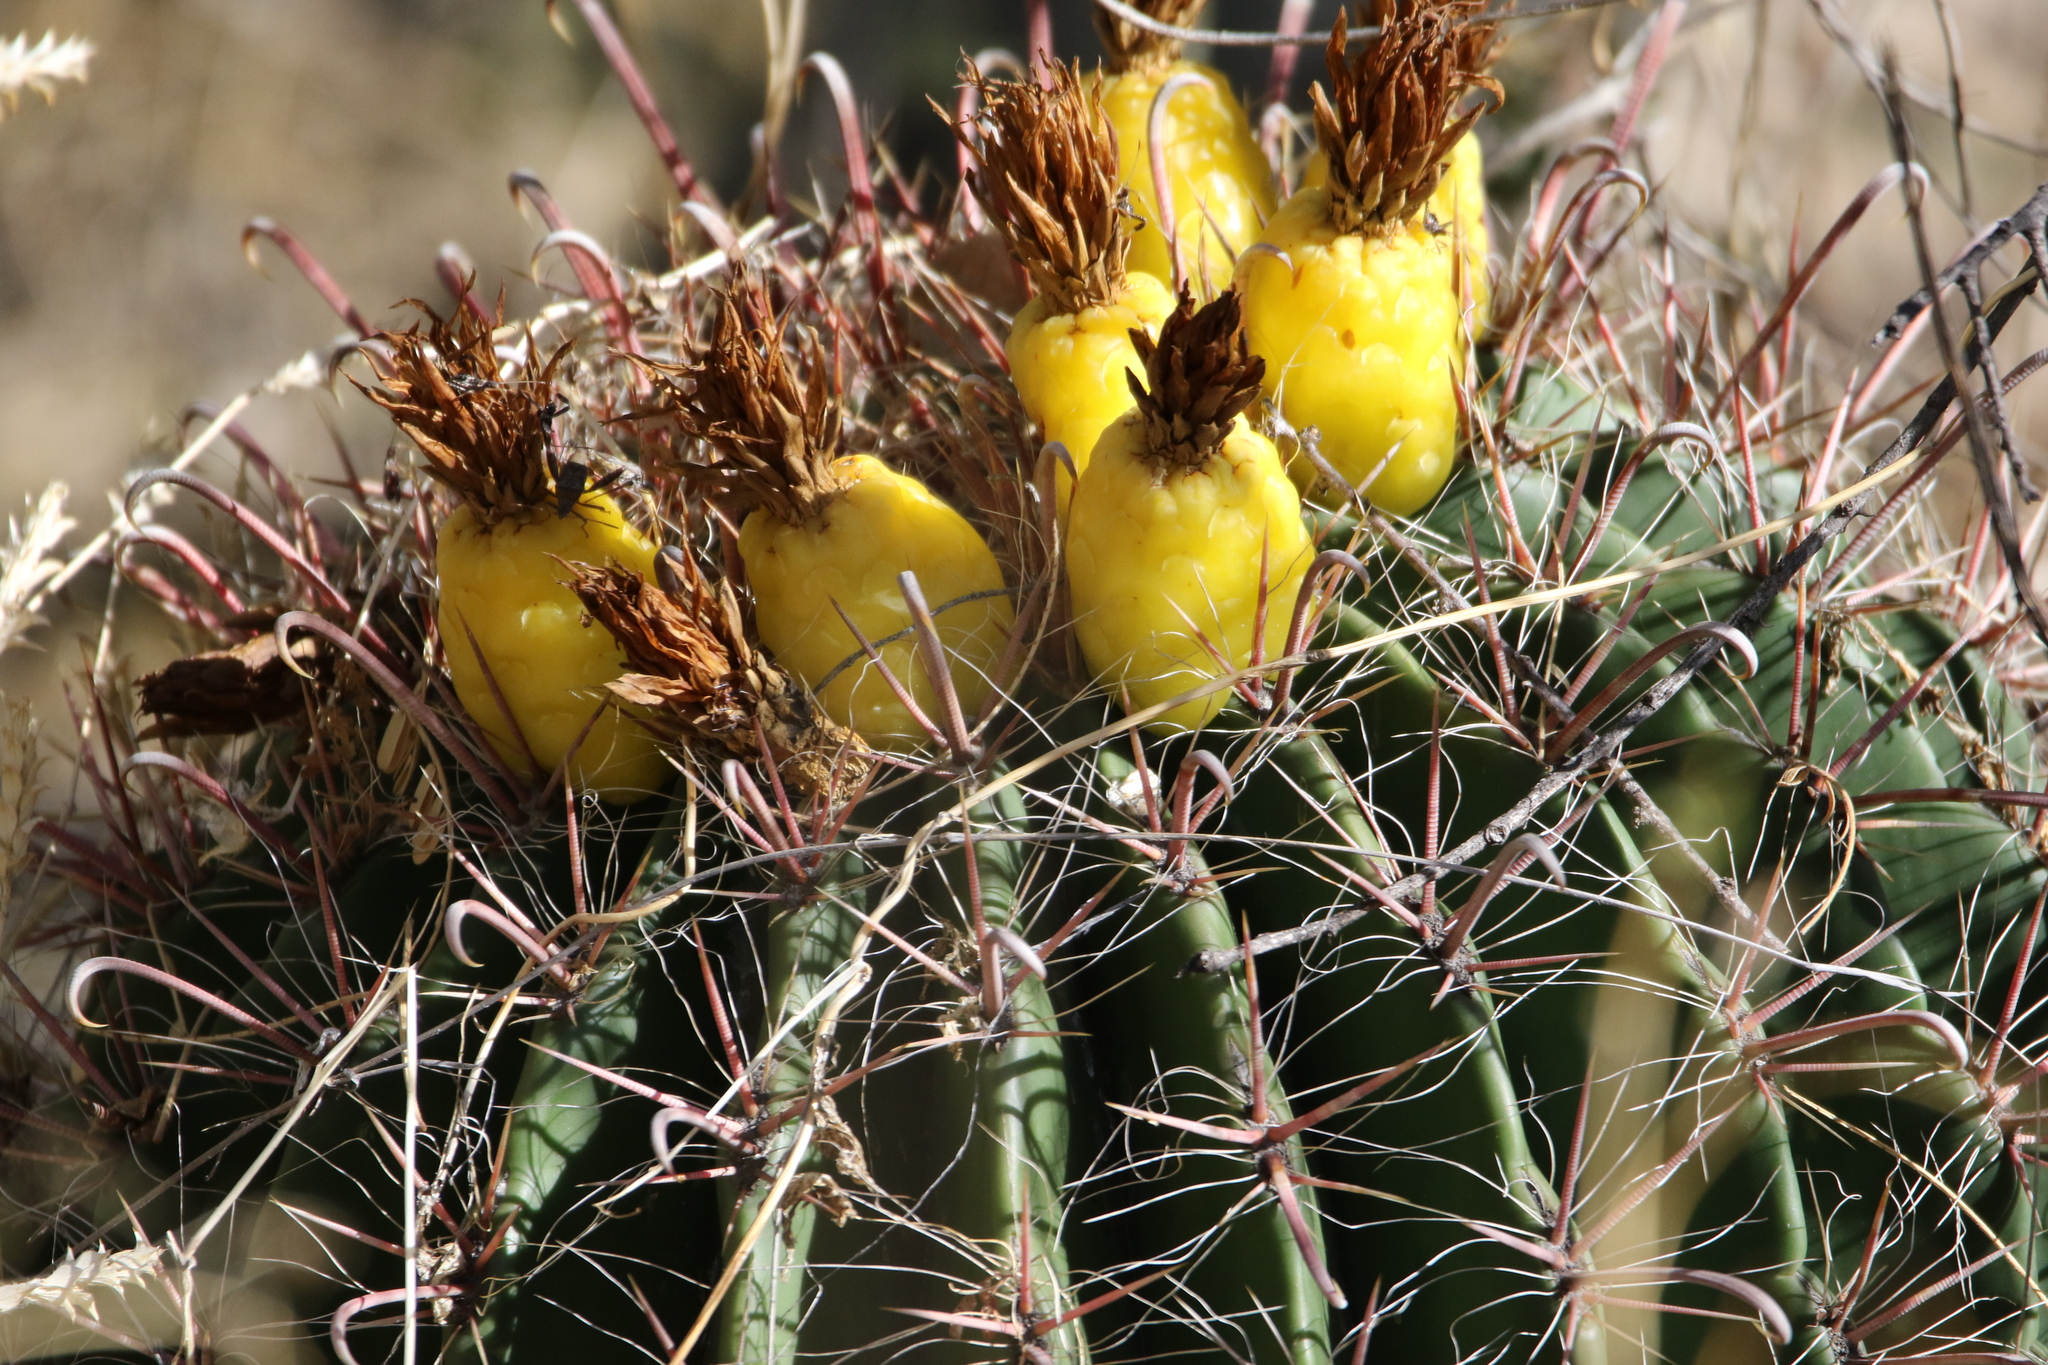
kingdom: Plantae
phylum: Tracheophyta
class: Magnoliopsida
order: Caryophyllales
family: Cactaceae
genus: Ferocactus
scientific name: Ferocactus wislizeni
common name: Candy barrel cactus
